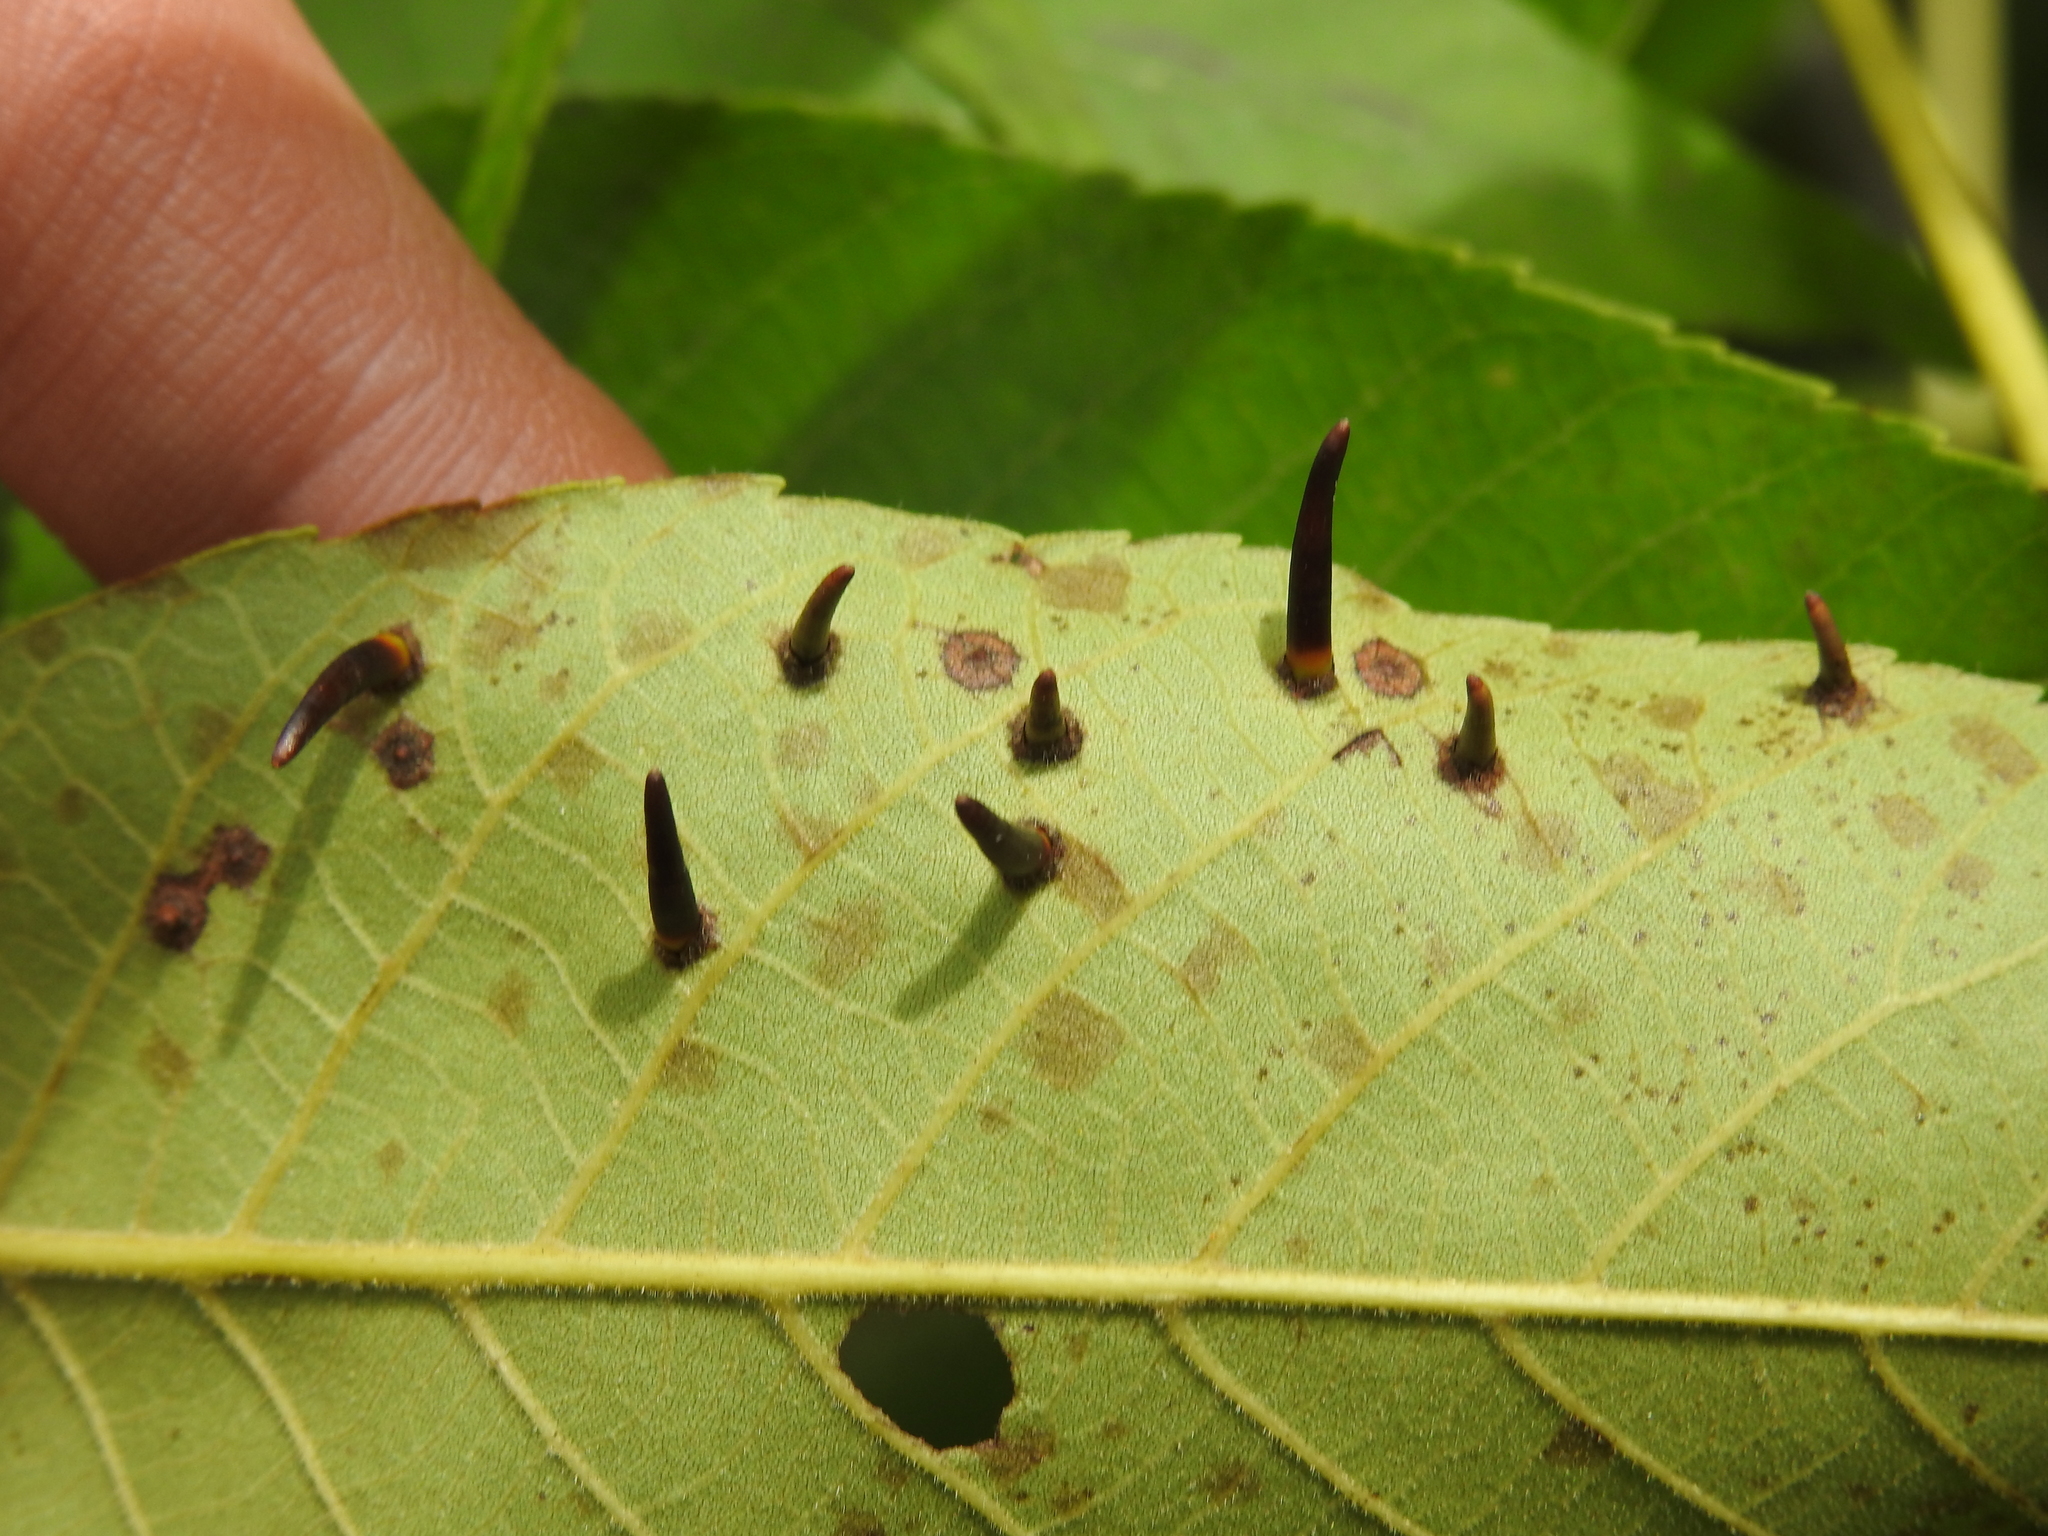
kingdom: Animalia
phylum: Arthropoda
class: Insecta
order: Diptera
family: Cecidomyiidae
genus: Caryomyia
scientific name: Caryomyia subulata
